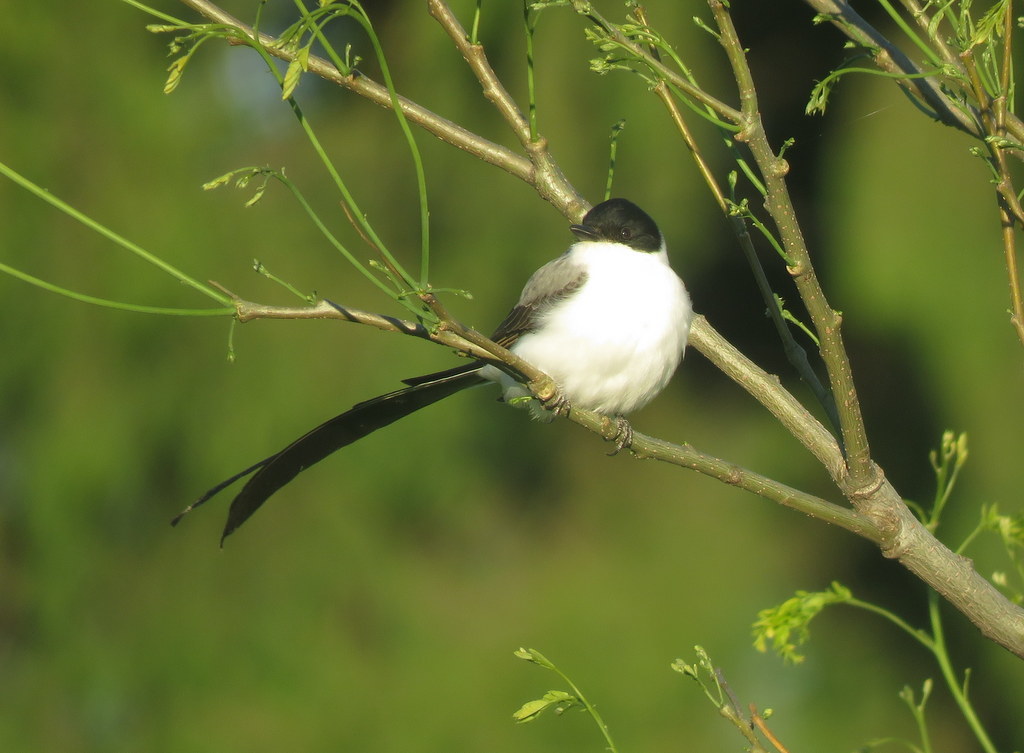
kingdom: Animalia
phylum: Chordata
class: Aves
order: Passeriformes
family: Tyrannidae
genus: Tyrannus
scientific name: Tyrannus savana
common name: Fork-tailed flycatcher
